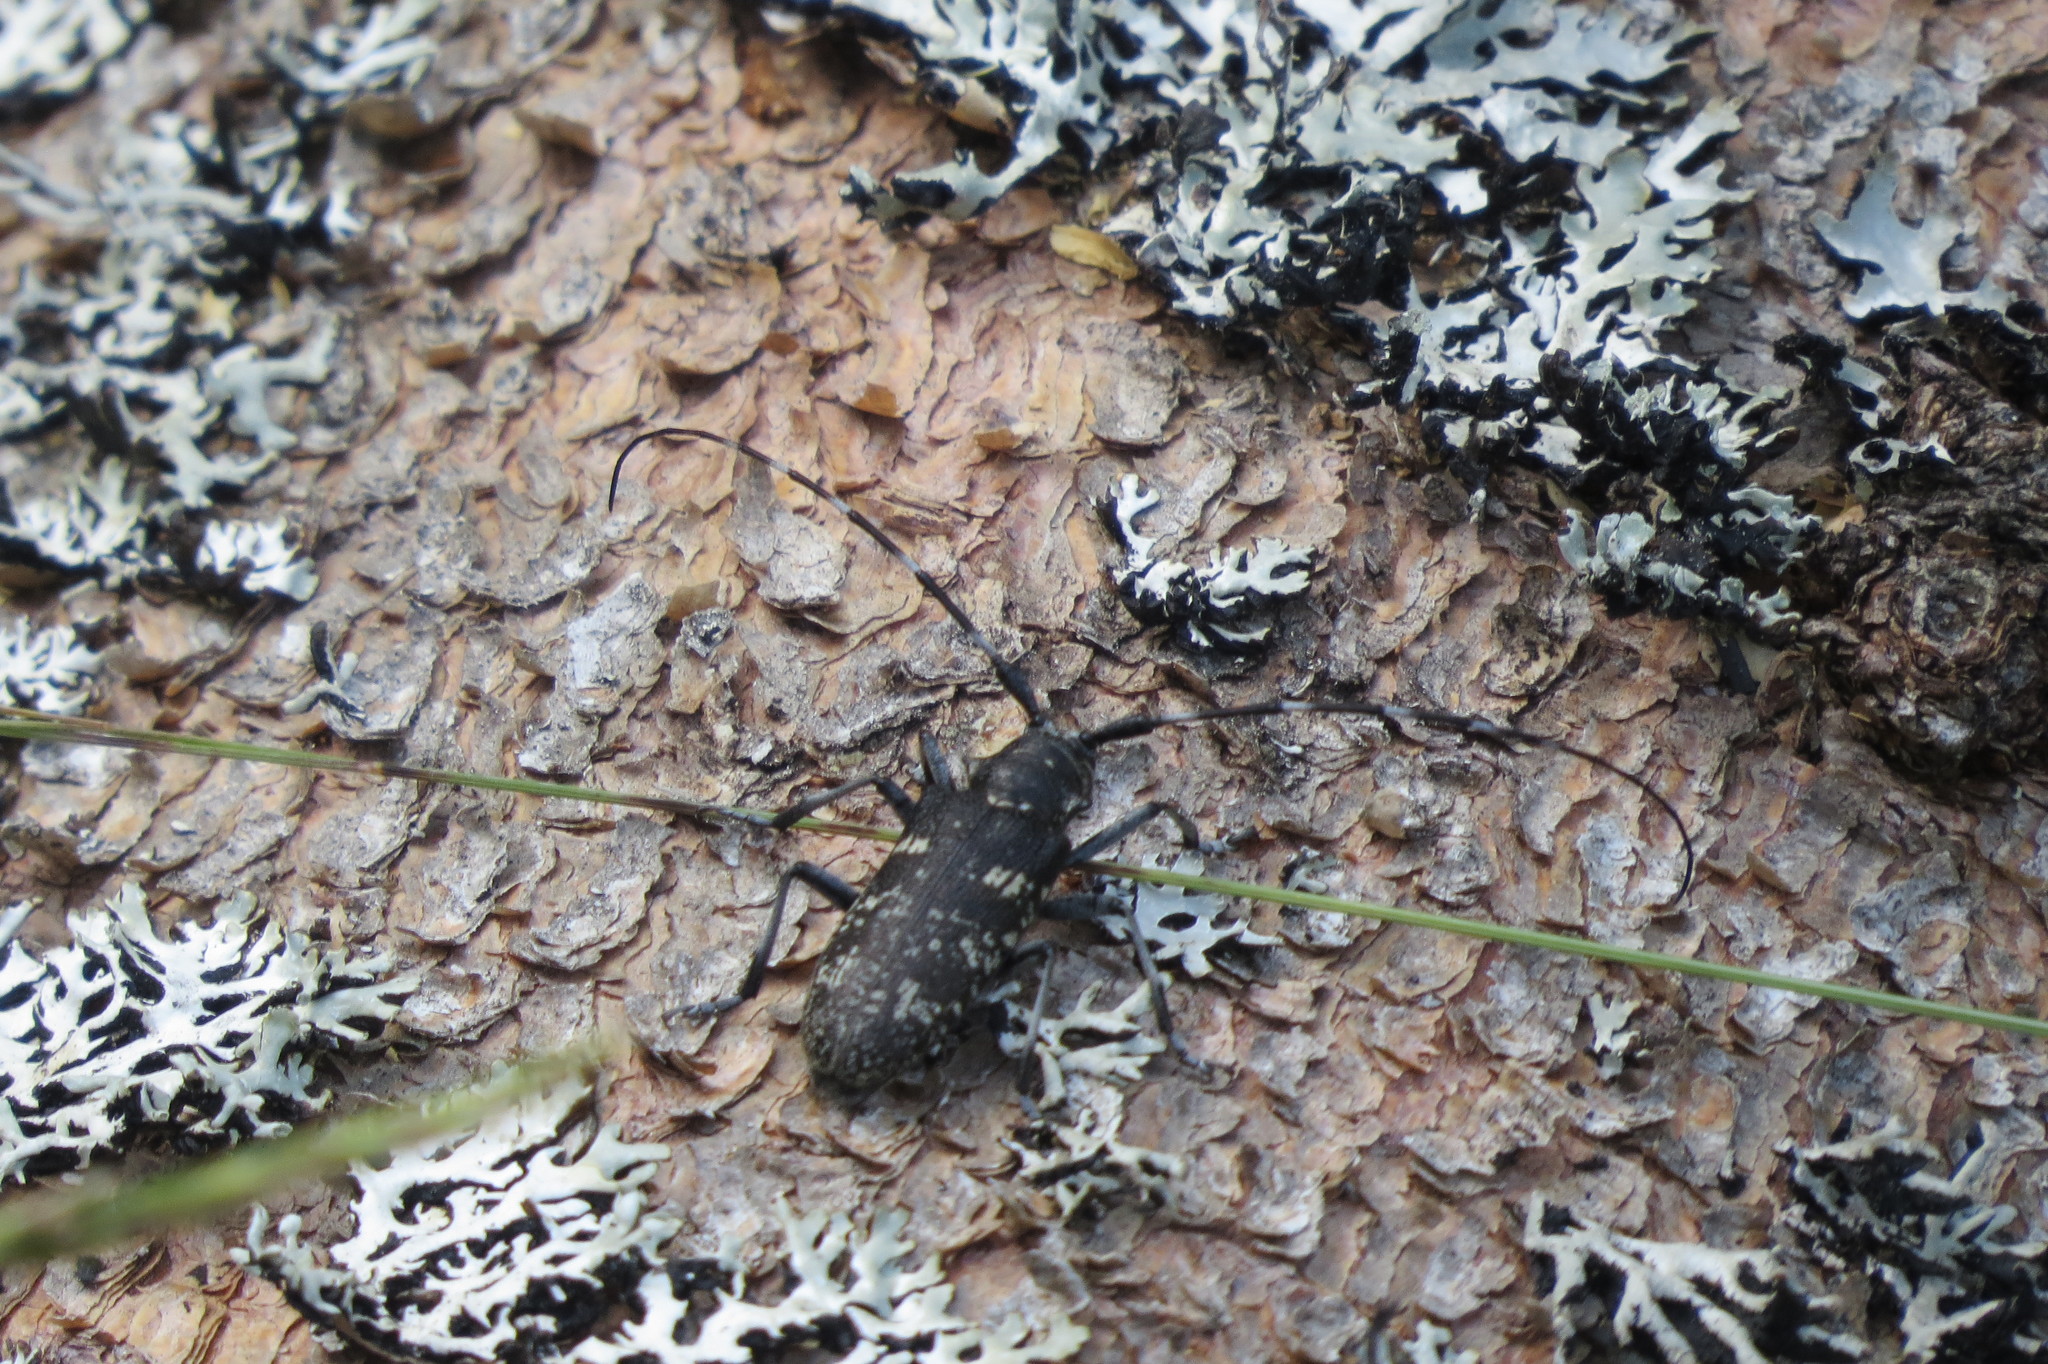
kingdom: Animalia
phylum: Arthropoda
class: Insecta
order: Coleoptera
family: Cerambycidae
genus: Monochamus
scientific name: Monochamus sutor
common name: Pine sawyer
